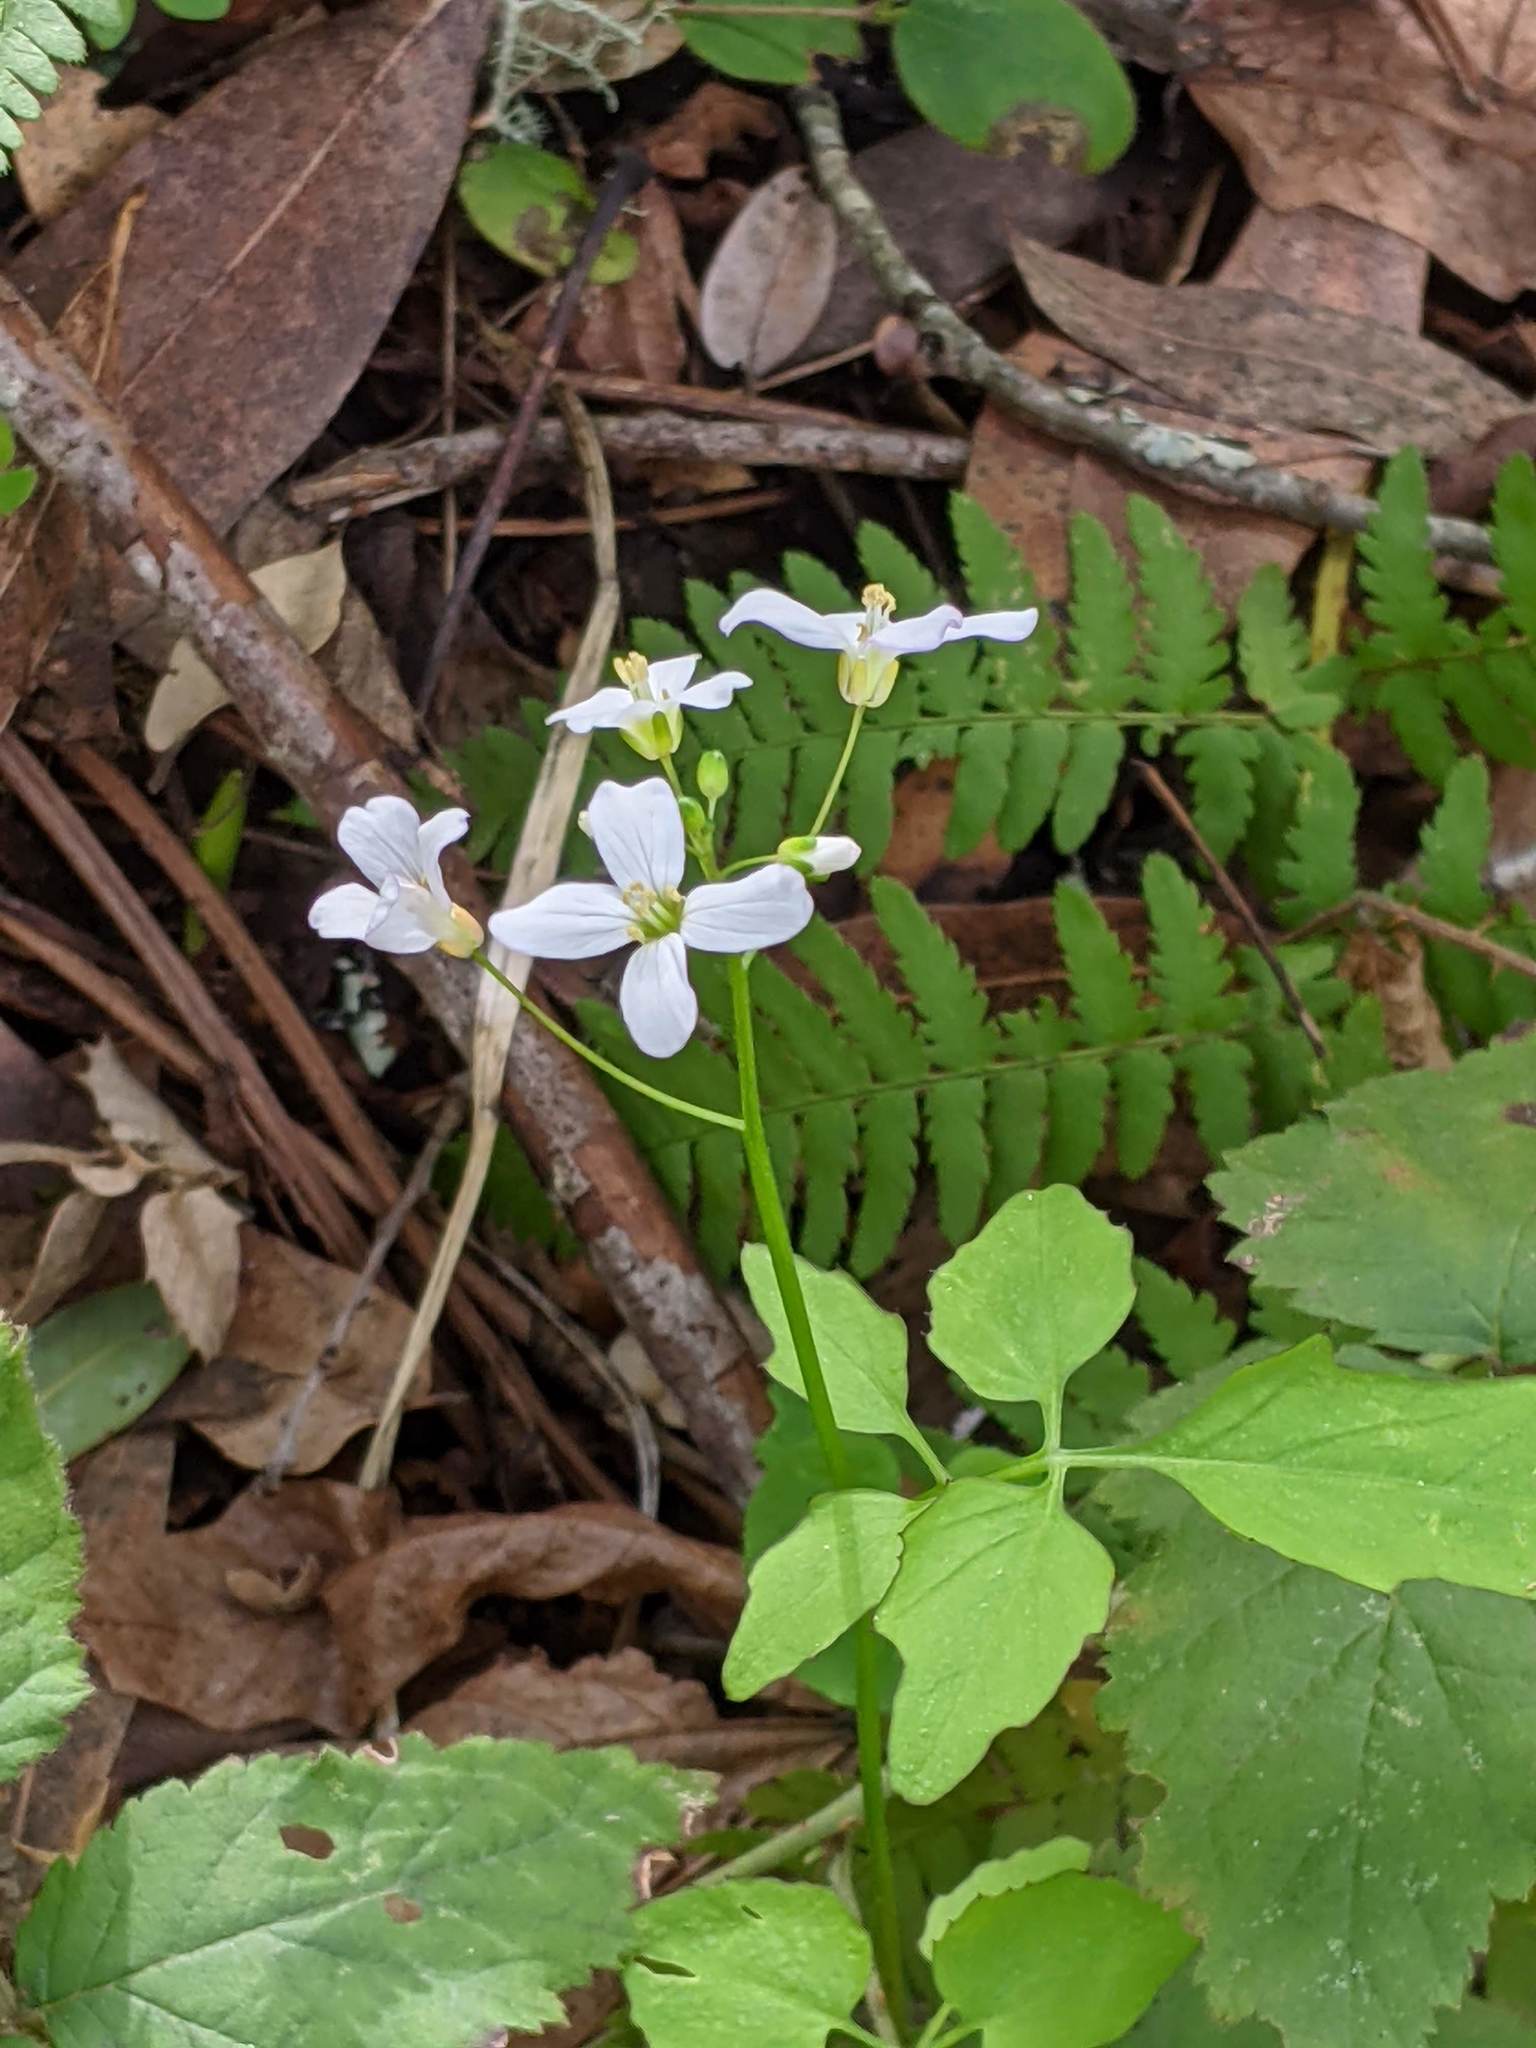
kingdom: Plantae
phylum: Tracheophyta
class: Magnoliopsida
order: Brassicales
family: Brassicaceae
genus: Cardamine
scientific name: Cardamine californica
